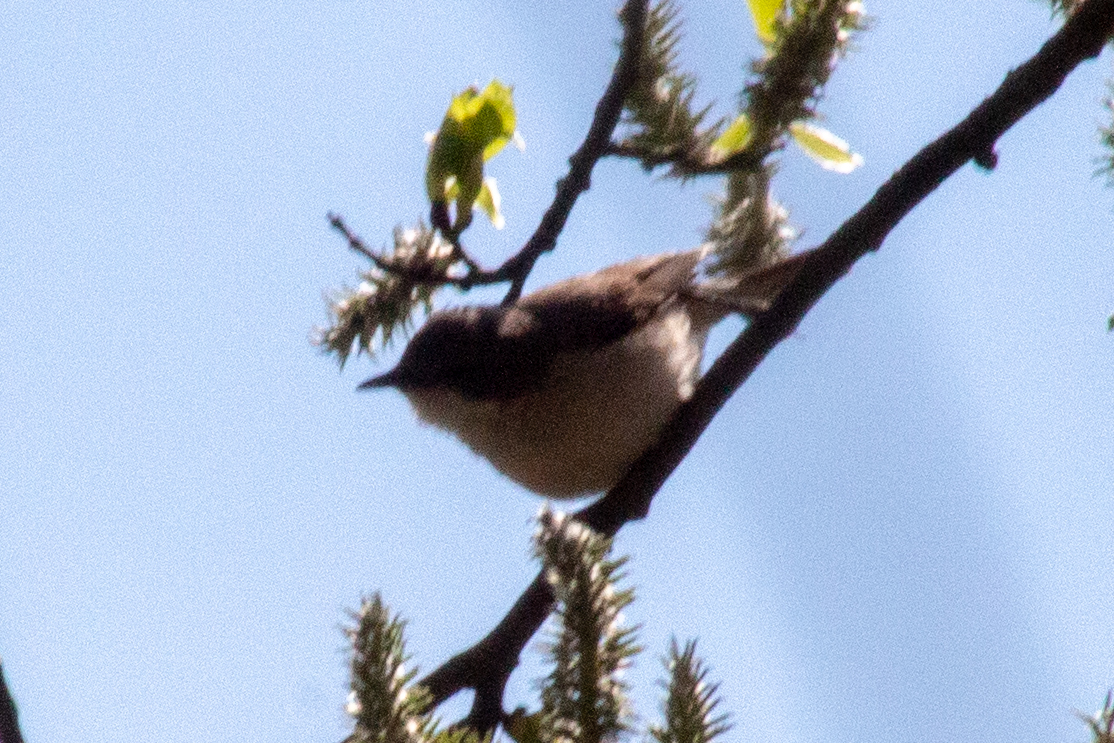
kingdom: Animalia
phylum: Chordata
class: Aves
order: Passeriformes
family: Acrocephalidae
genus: Acrocephalus
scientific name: Acrocephalus dumetorum
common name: Blyth's reed warbler
